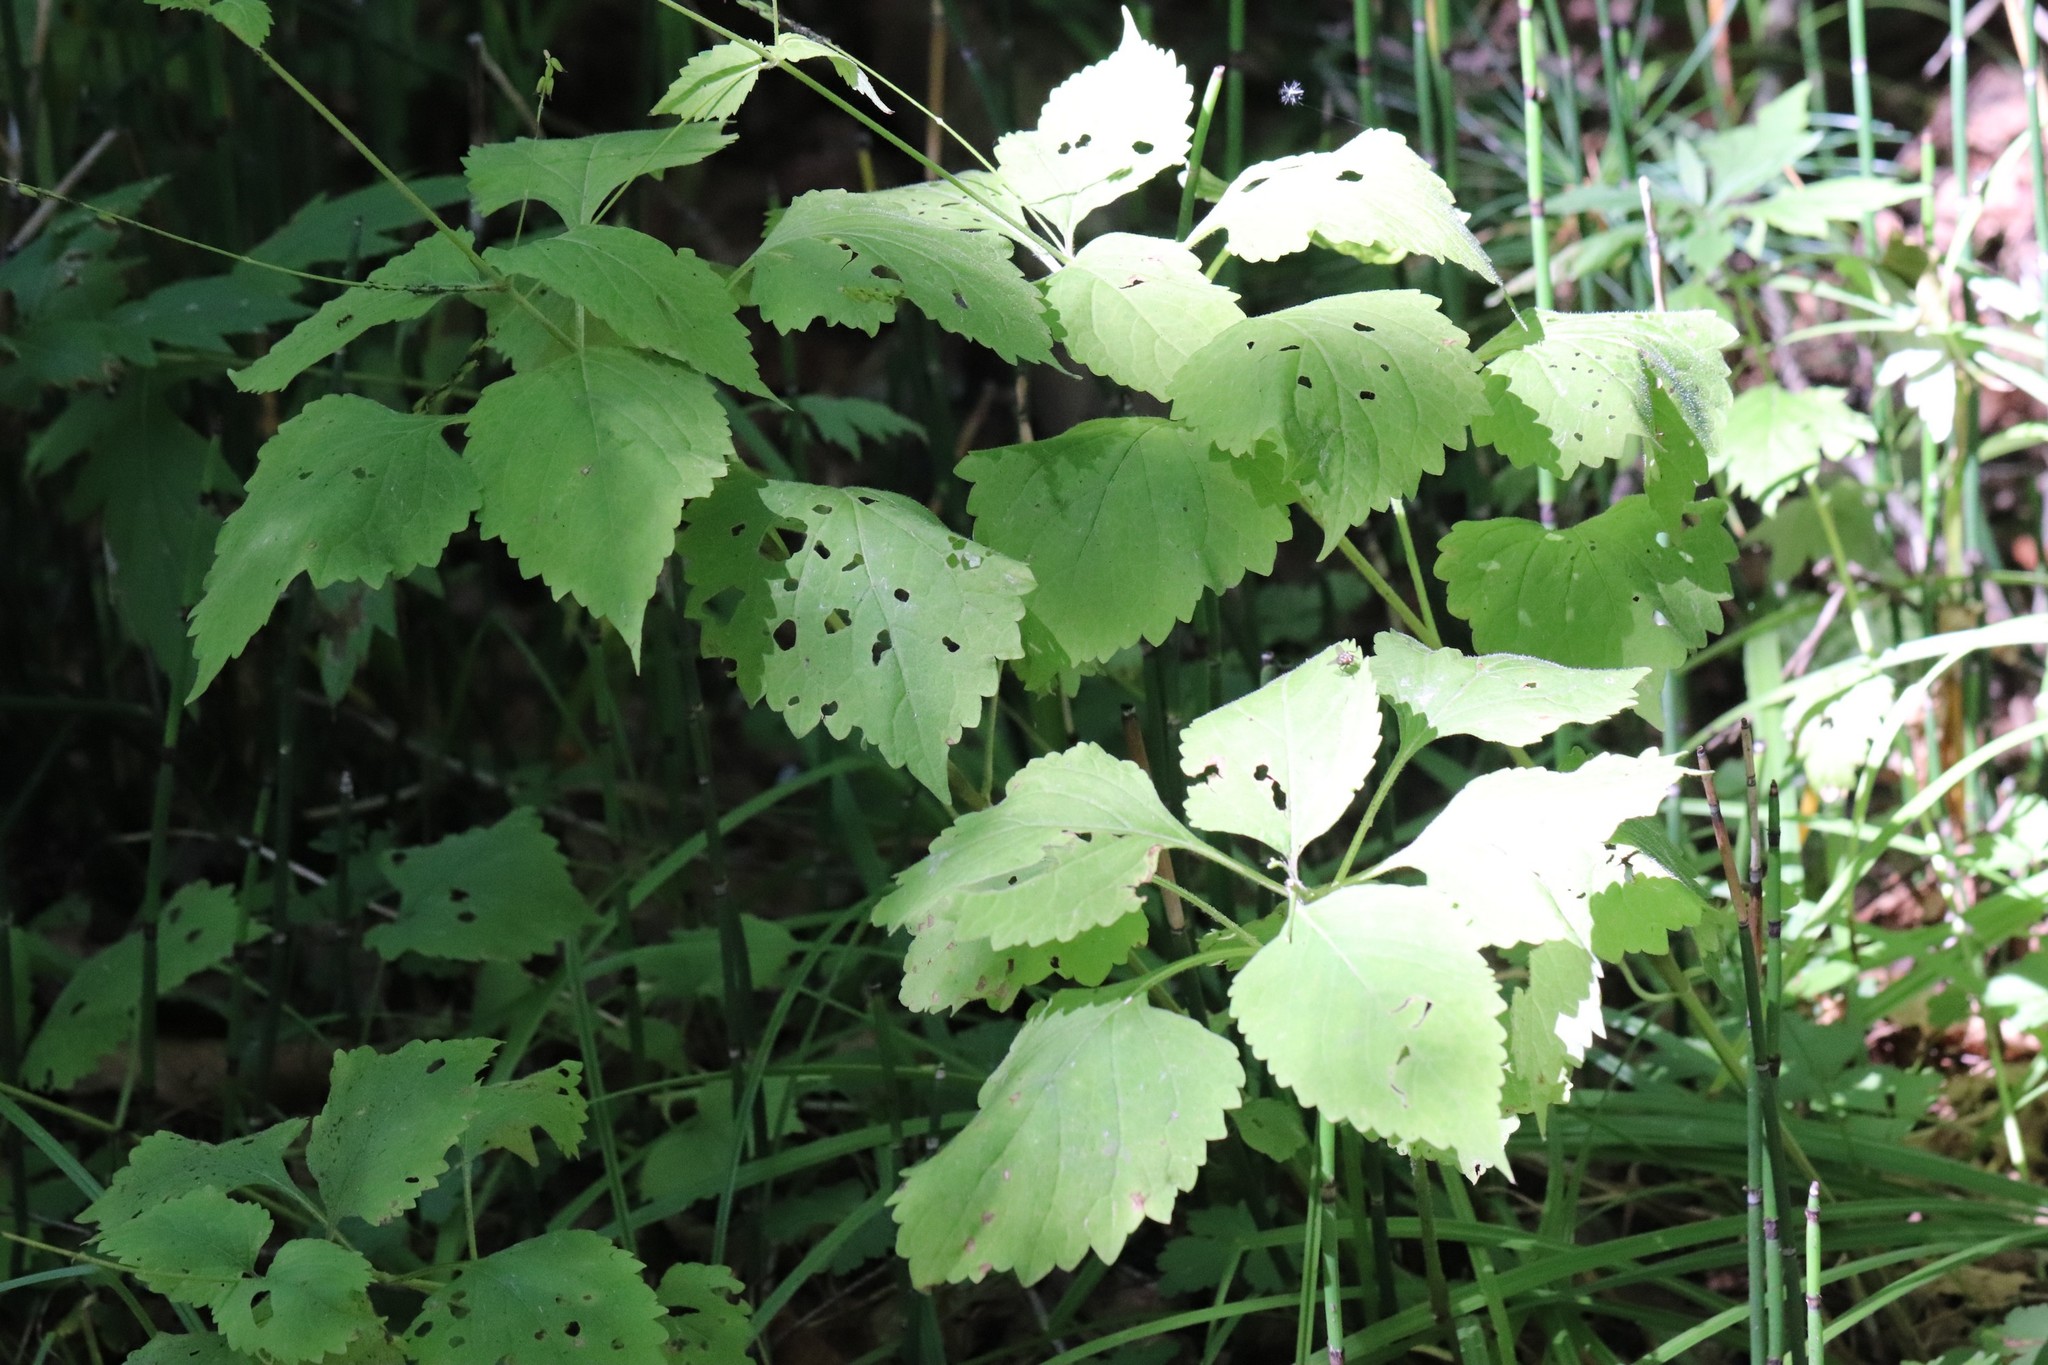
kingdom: Plantae
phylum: Tracheophyta
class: Magnoliopsida
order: Lamiales
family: Phrymaceae
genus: Phryma
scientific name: Phryma nana
